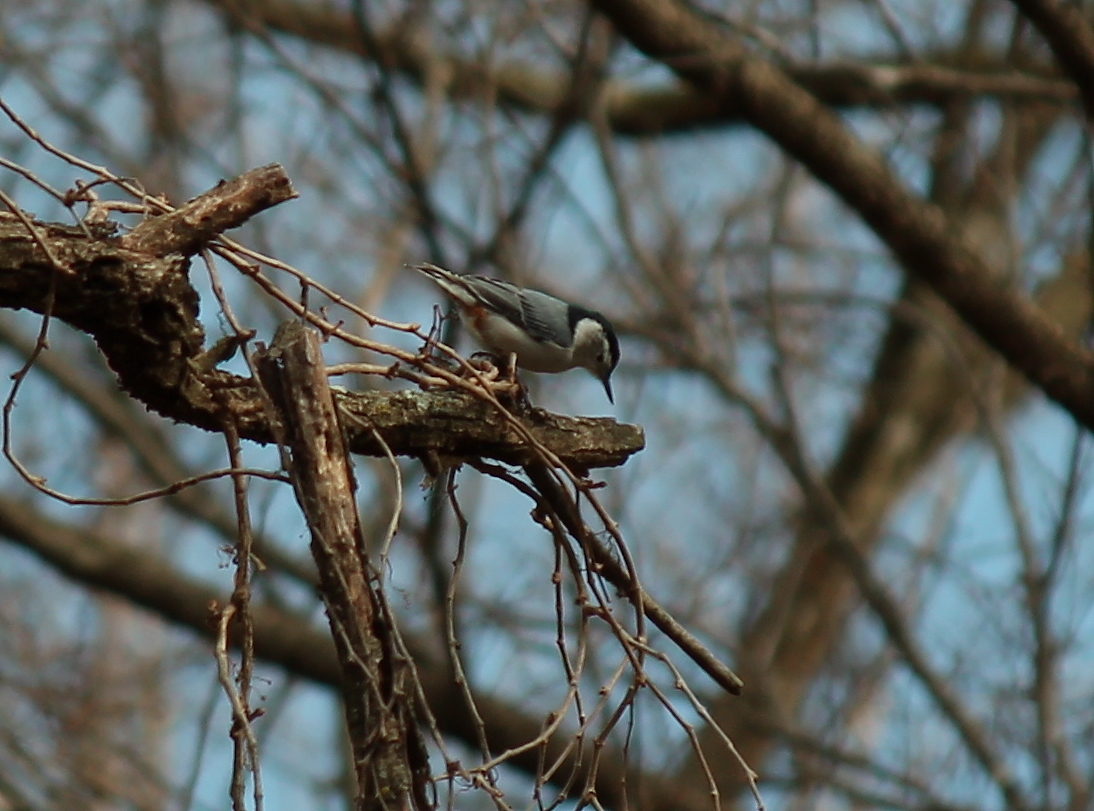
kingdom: Animalia
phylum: Chordata
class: Aves
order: Passeriformes
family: Sittidae
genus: Sitta
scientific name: Sitta carolinensis
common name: White-breasted nuthatch
